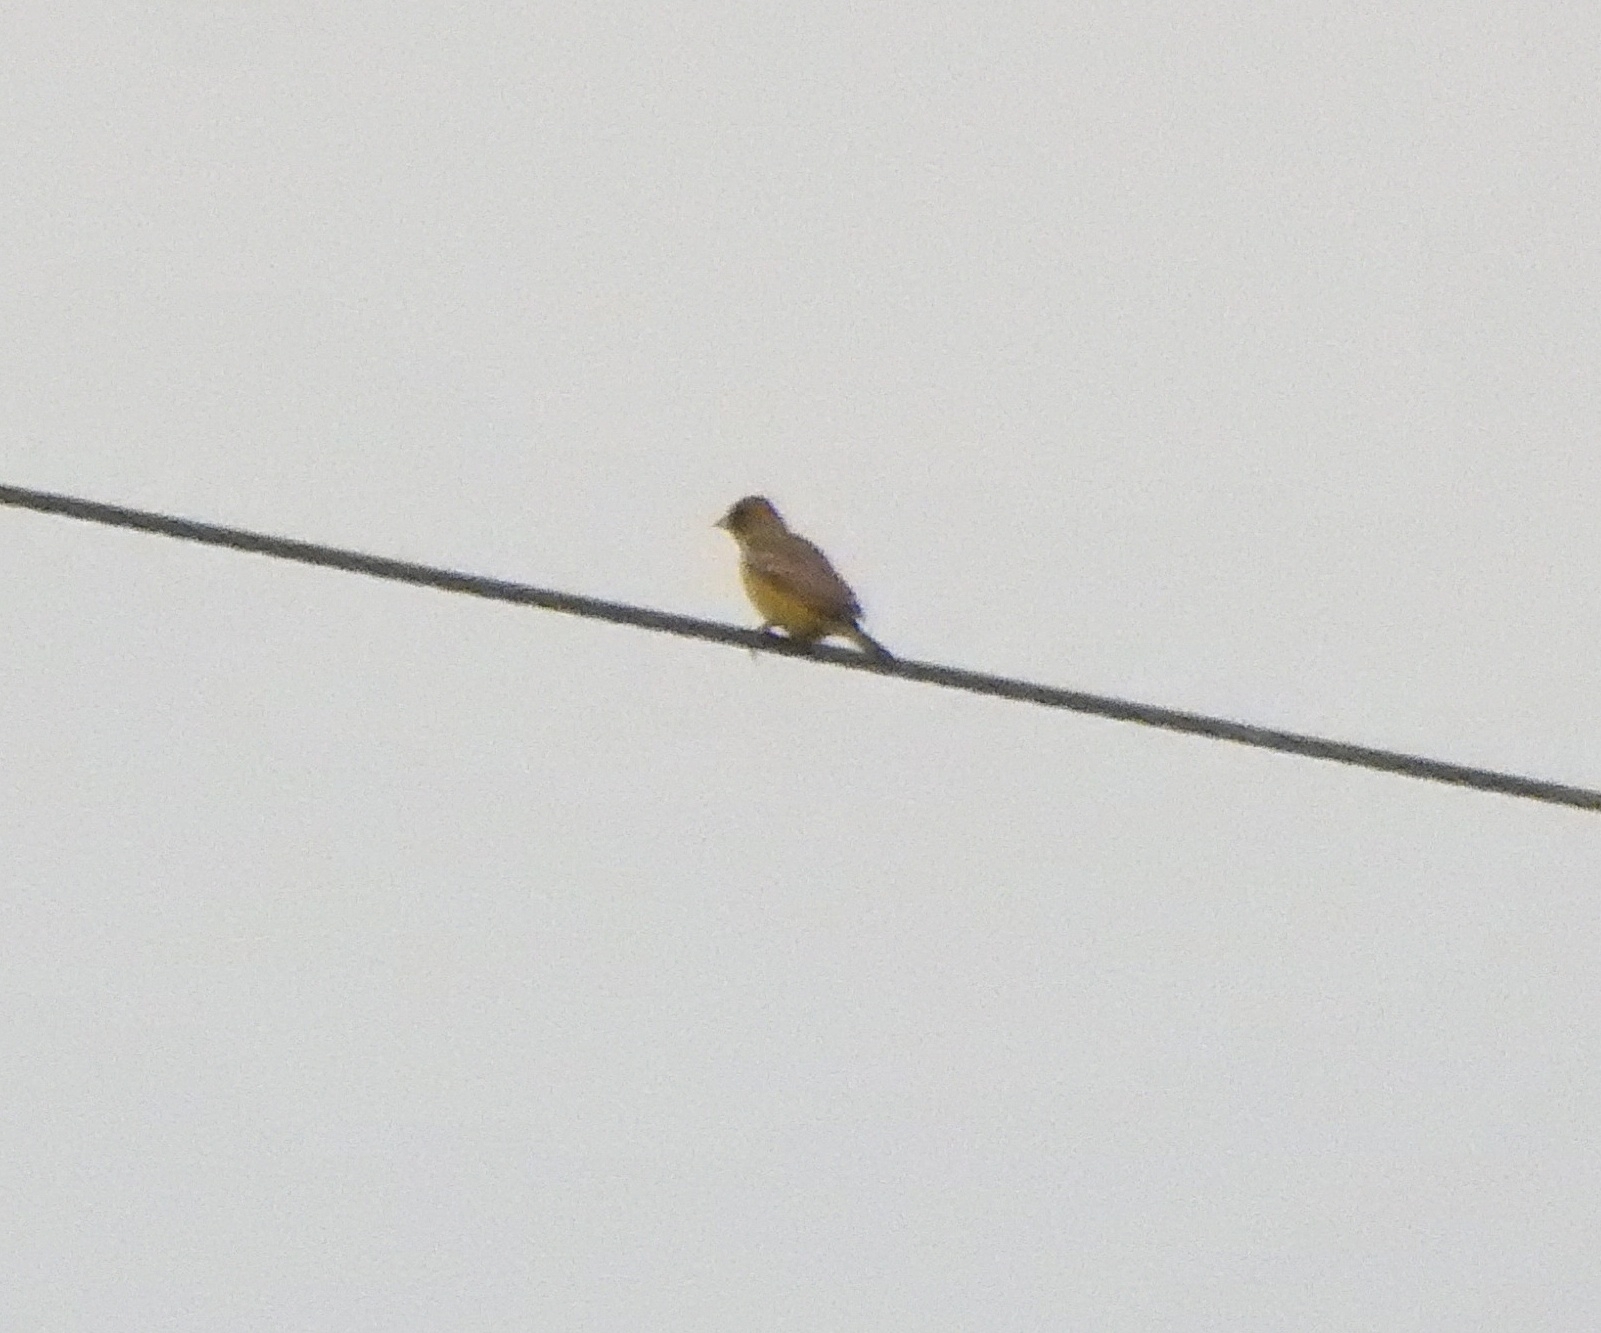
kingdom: Animalia
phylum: Chordata
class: Aves
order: Passeriformes
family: Emberizidae
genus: Emberiza
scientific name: Emberiza bruniceps
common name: Red-headed bunting
